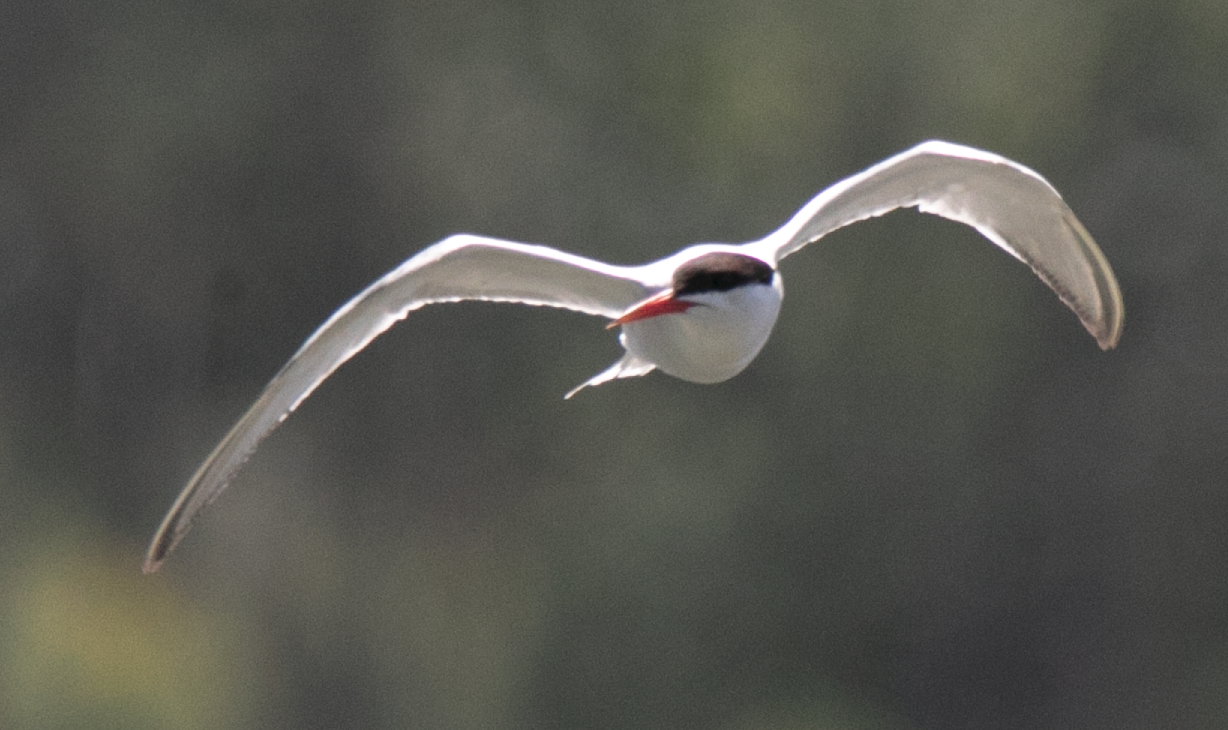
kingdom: Animalia
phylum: Chordata
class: Aves
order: Charadriiformes
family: Laridae
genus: Sterna
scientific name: Sterna hirundo
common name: Common tern
